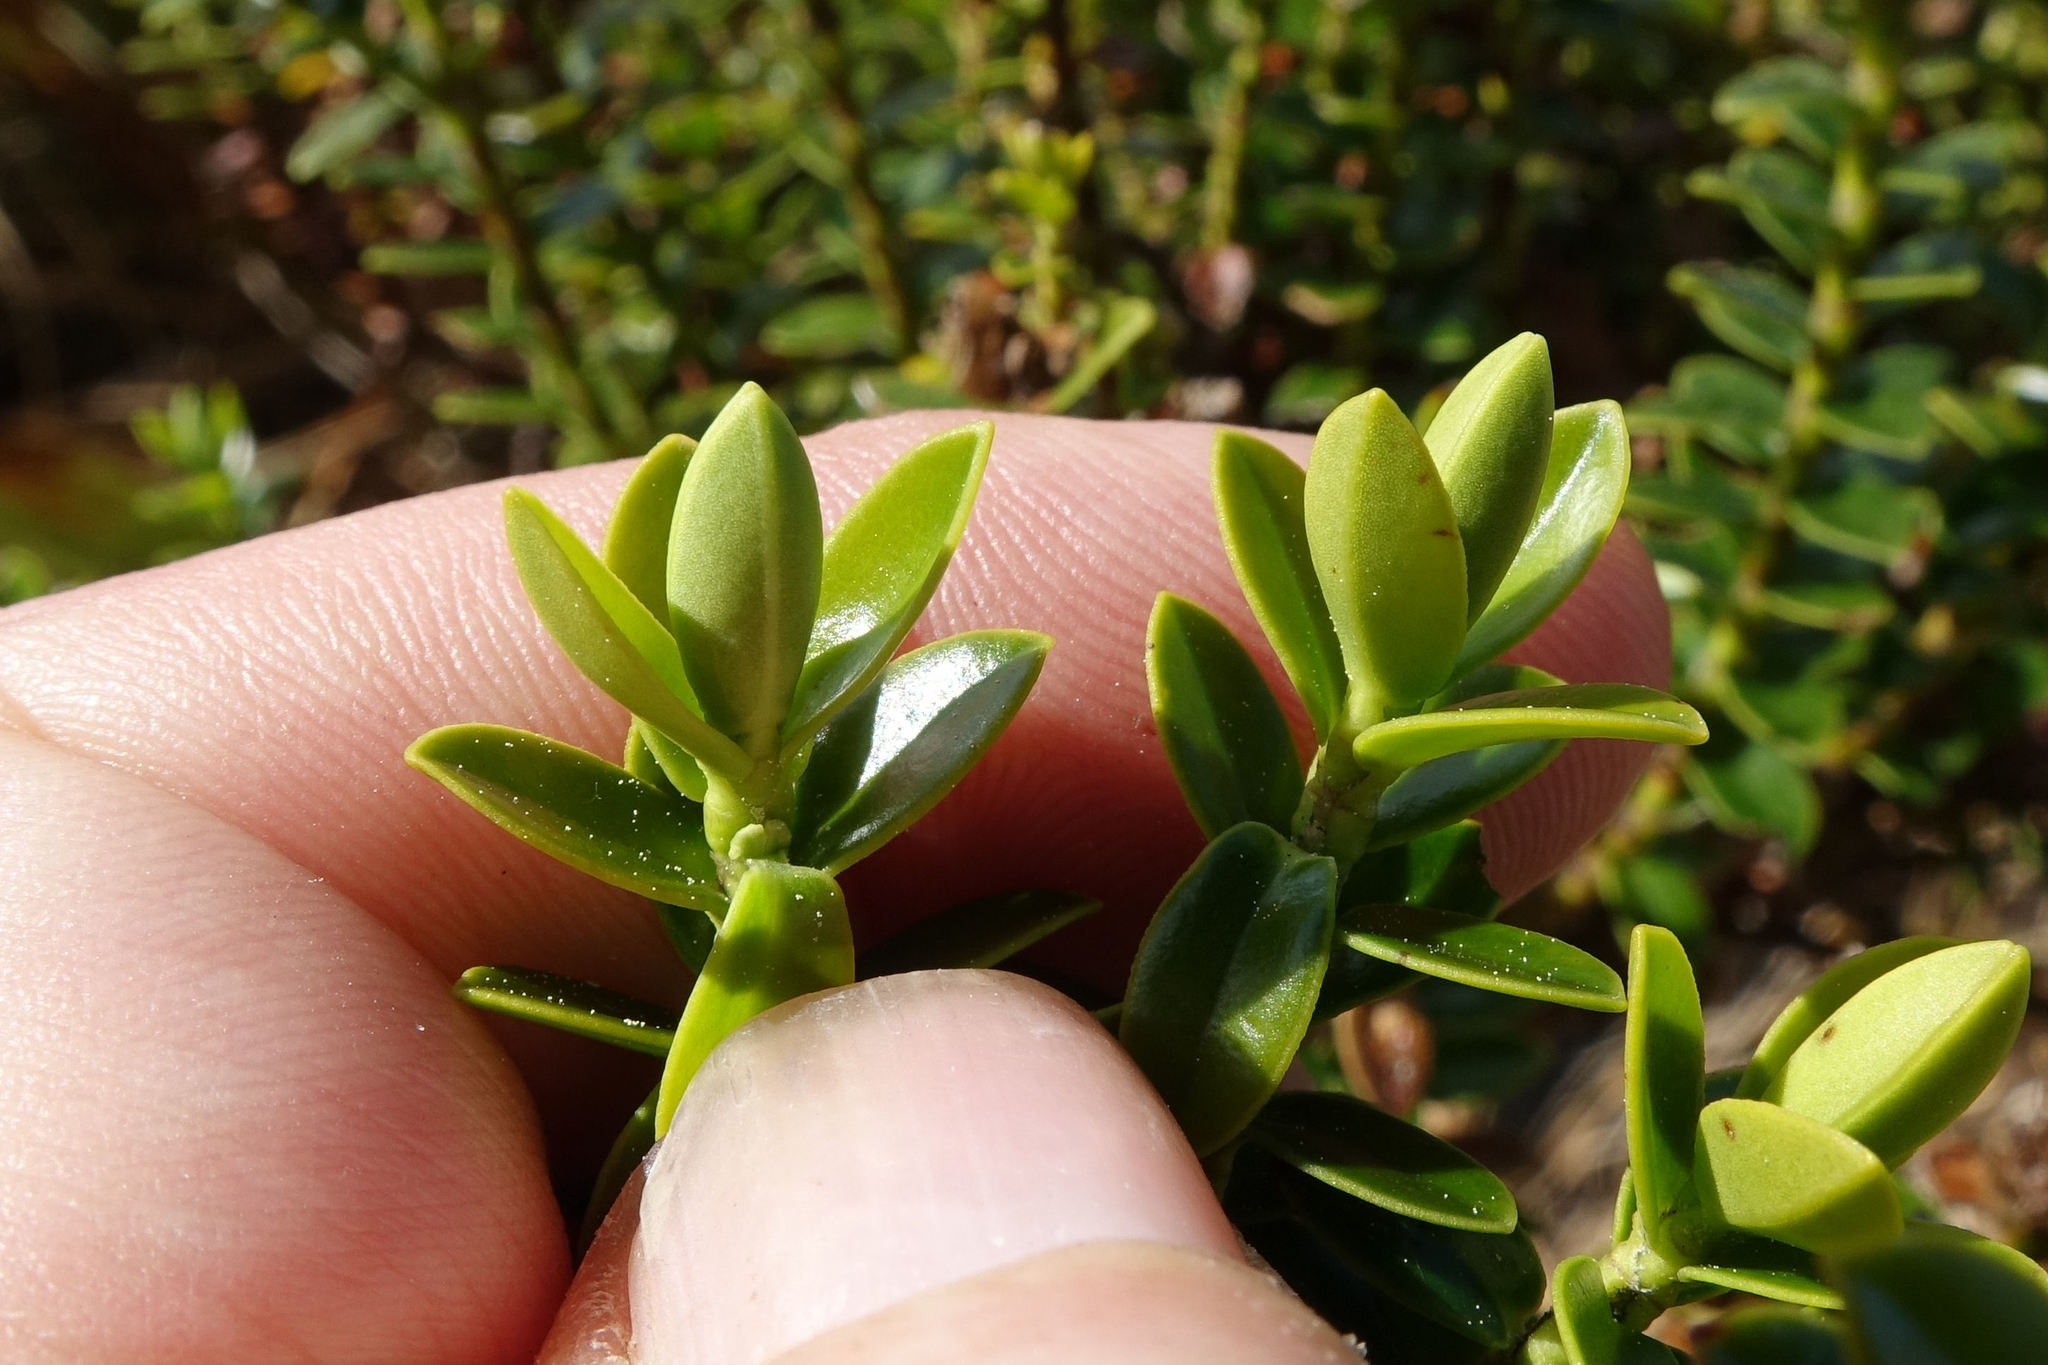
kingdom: Plantae
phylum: Tracheophyta
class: Magnoliopsida
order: Lamiales
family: Plantaginaceae
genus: Veronica
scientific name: Veronica odora
